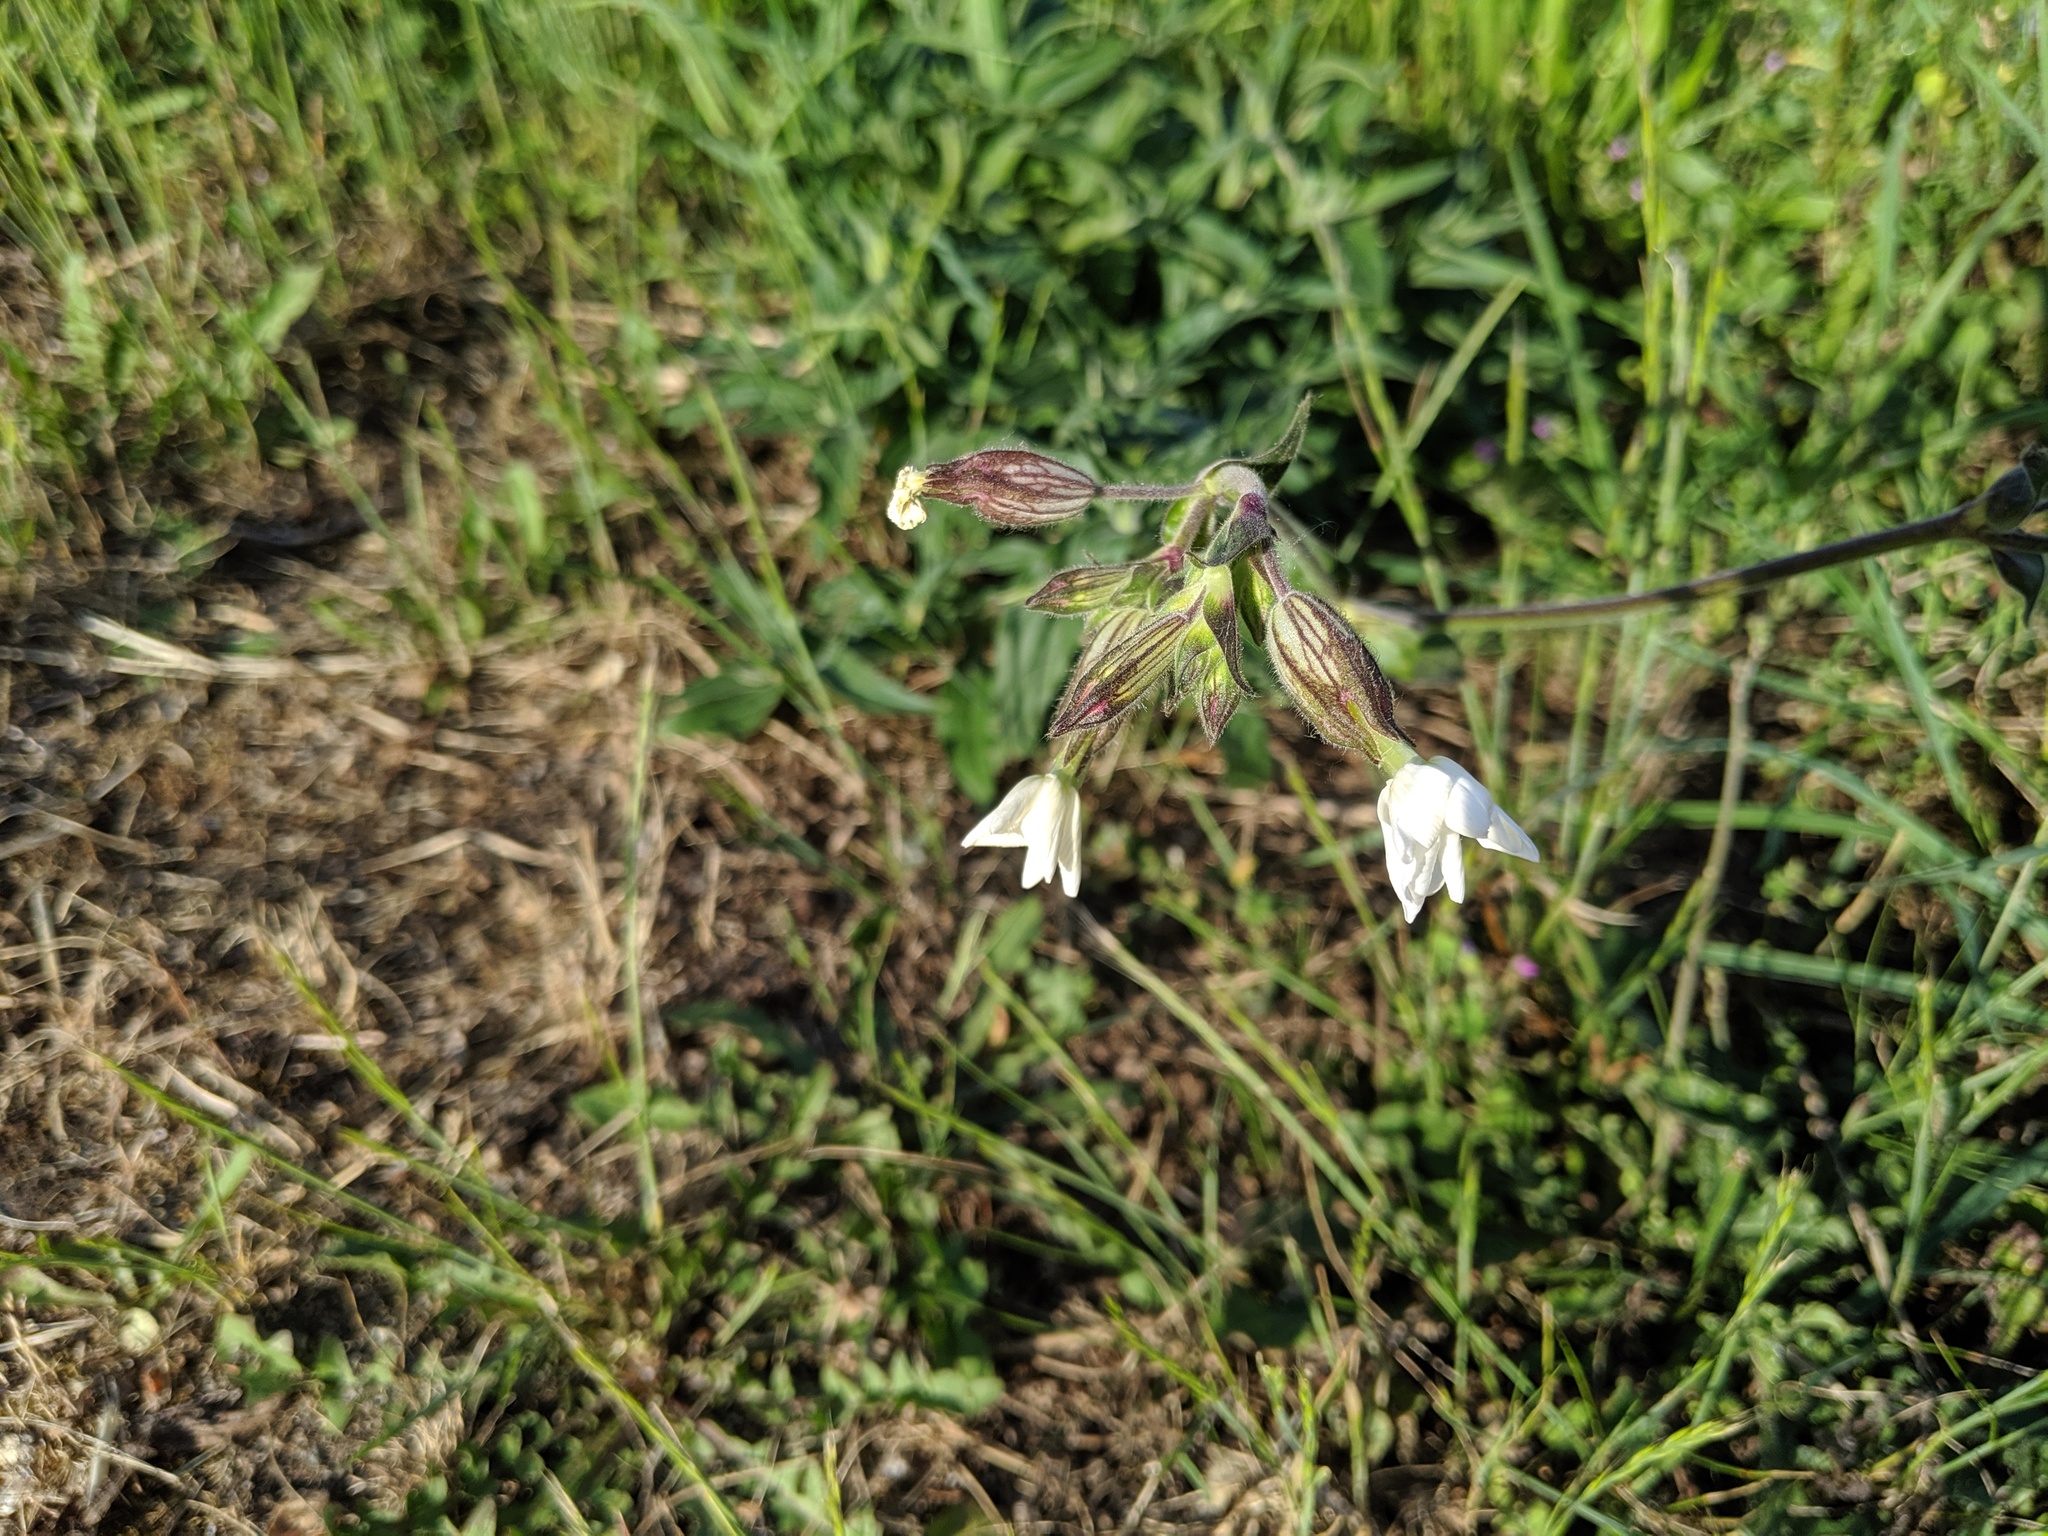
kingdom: Plantae
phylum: Tracheophyta
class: Magnoliopsida
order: Caryophyllales
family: Caryophyllaceae
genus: Silene
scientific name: Silene latifolia
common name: White campion
